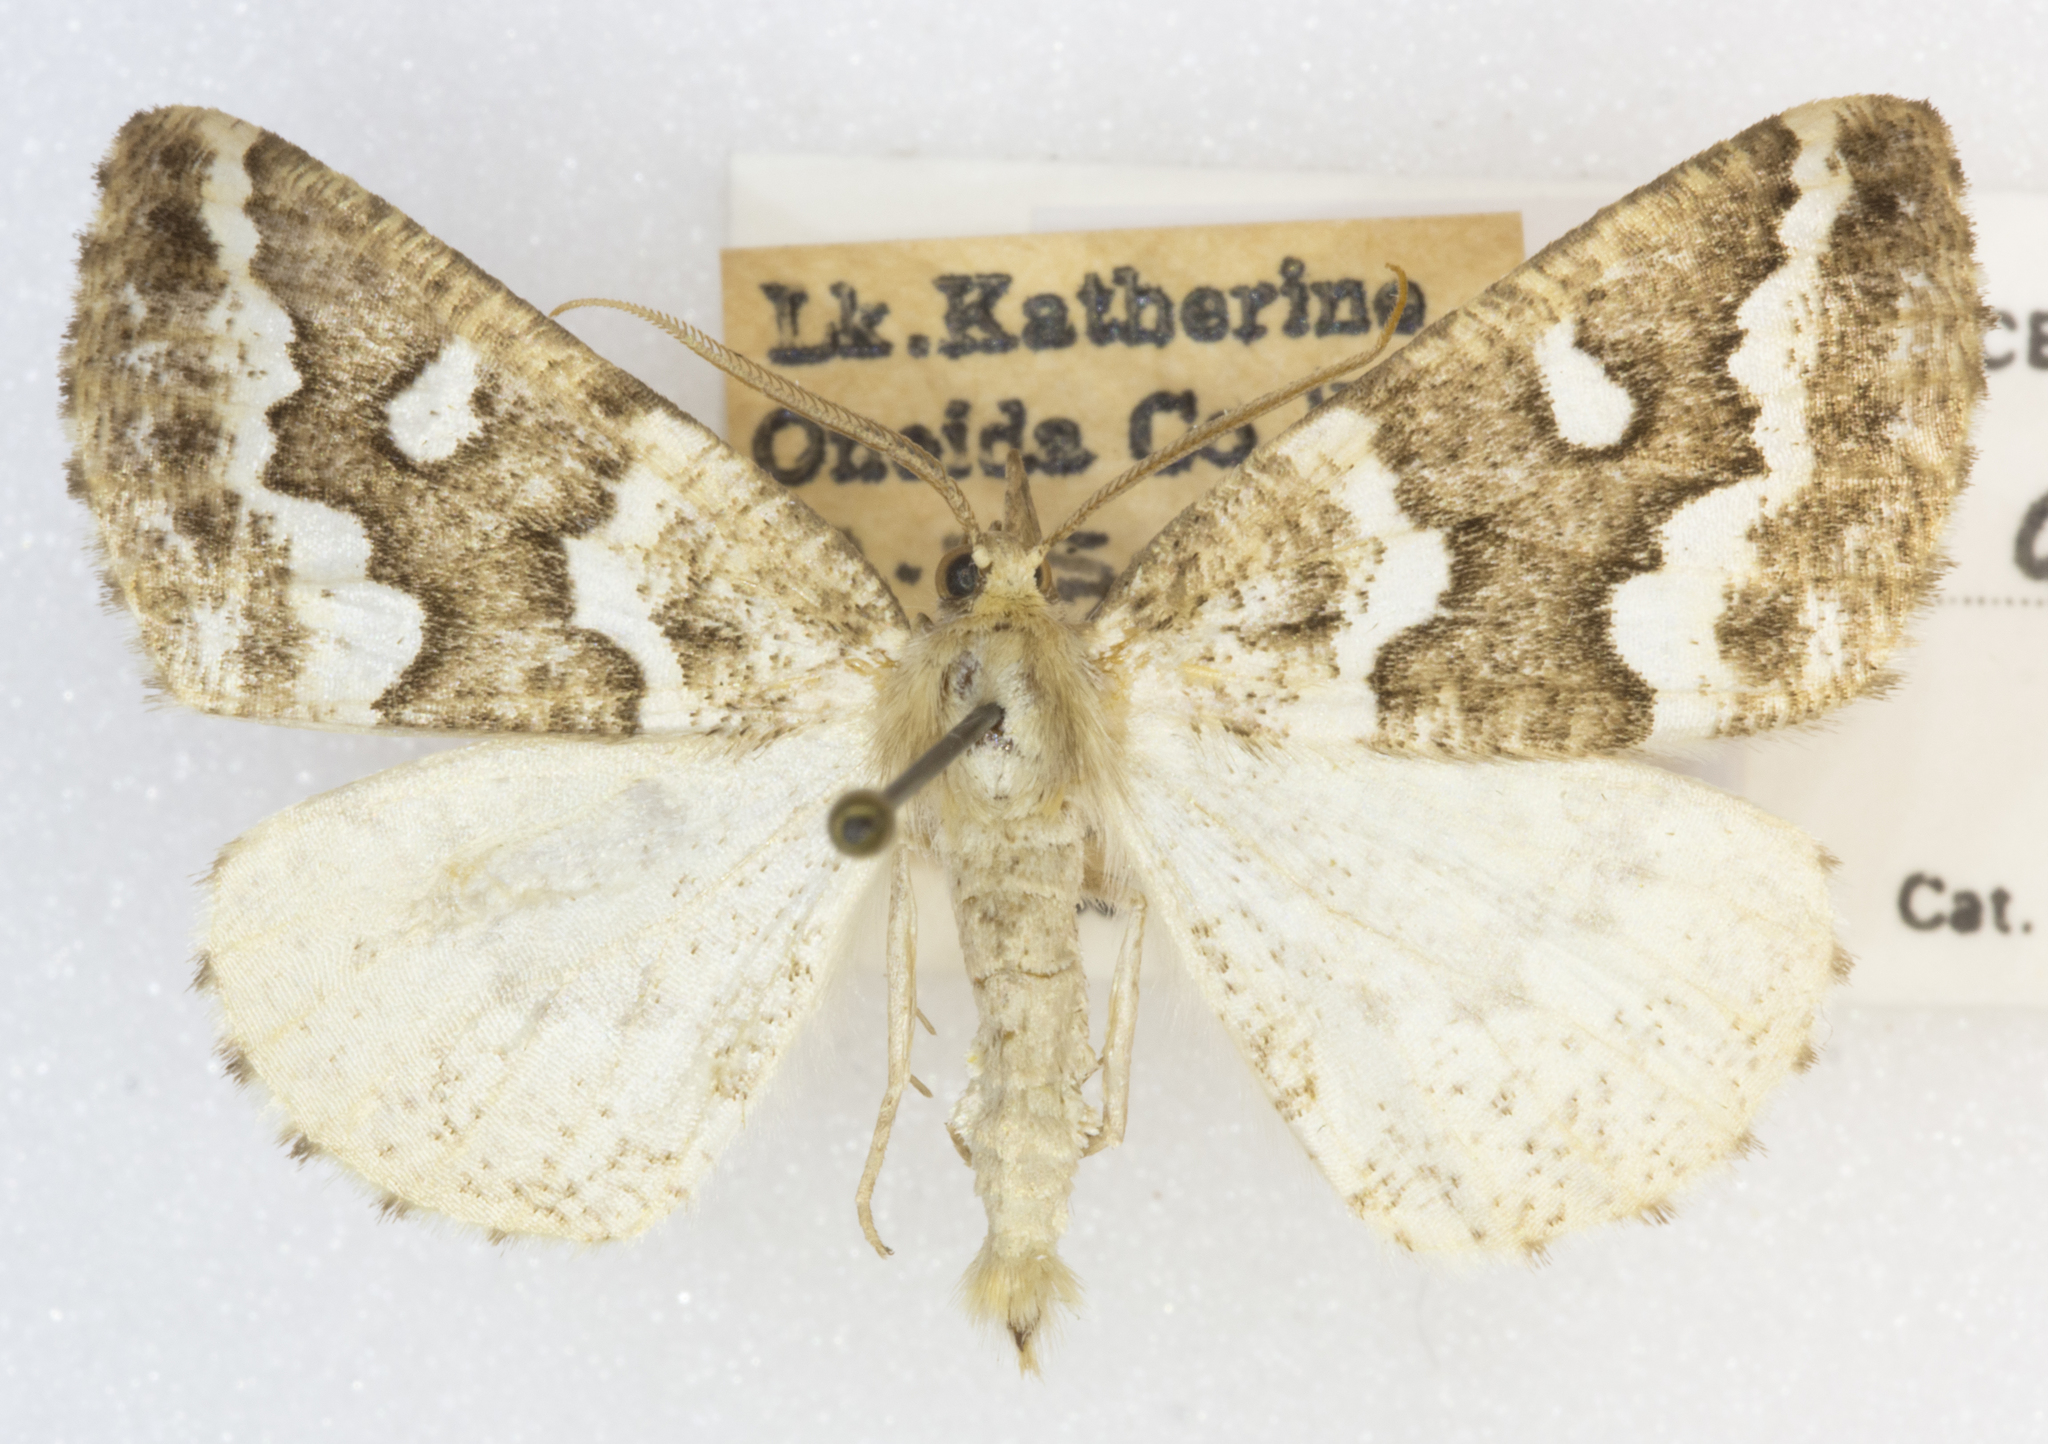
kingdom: Animalia
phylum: Arthropoda
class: Insecta
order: Lepidoptera
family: Geometridae
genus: Caripeta
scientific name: Caripeta divisata
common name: Gray spruce looper
